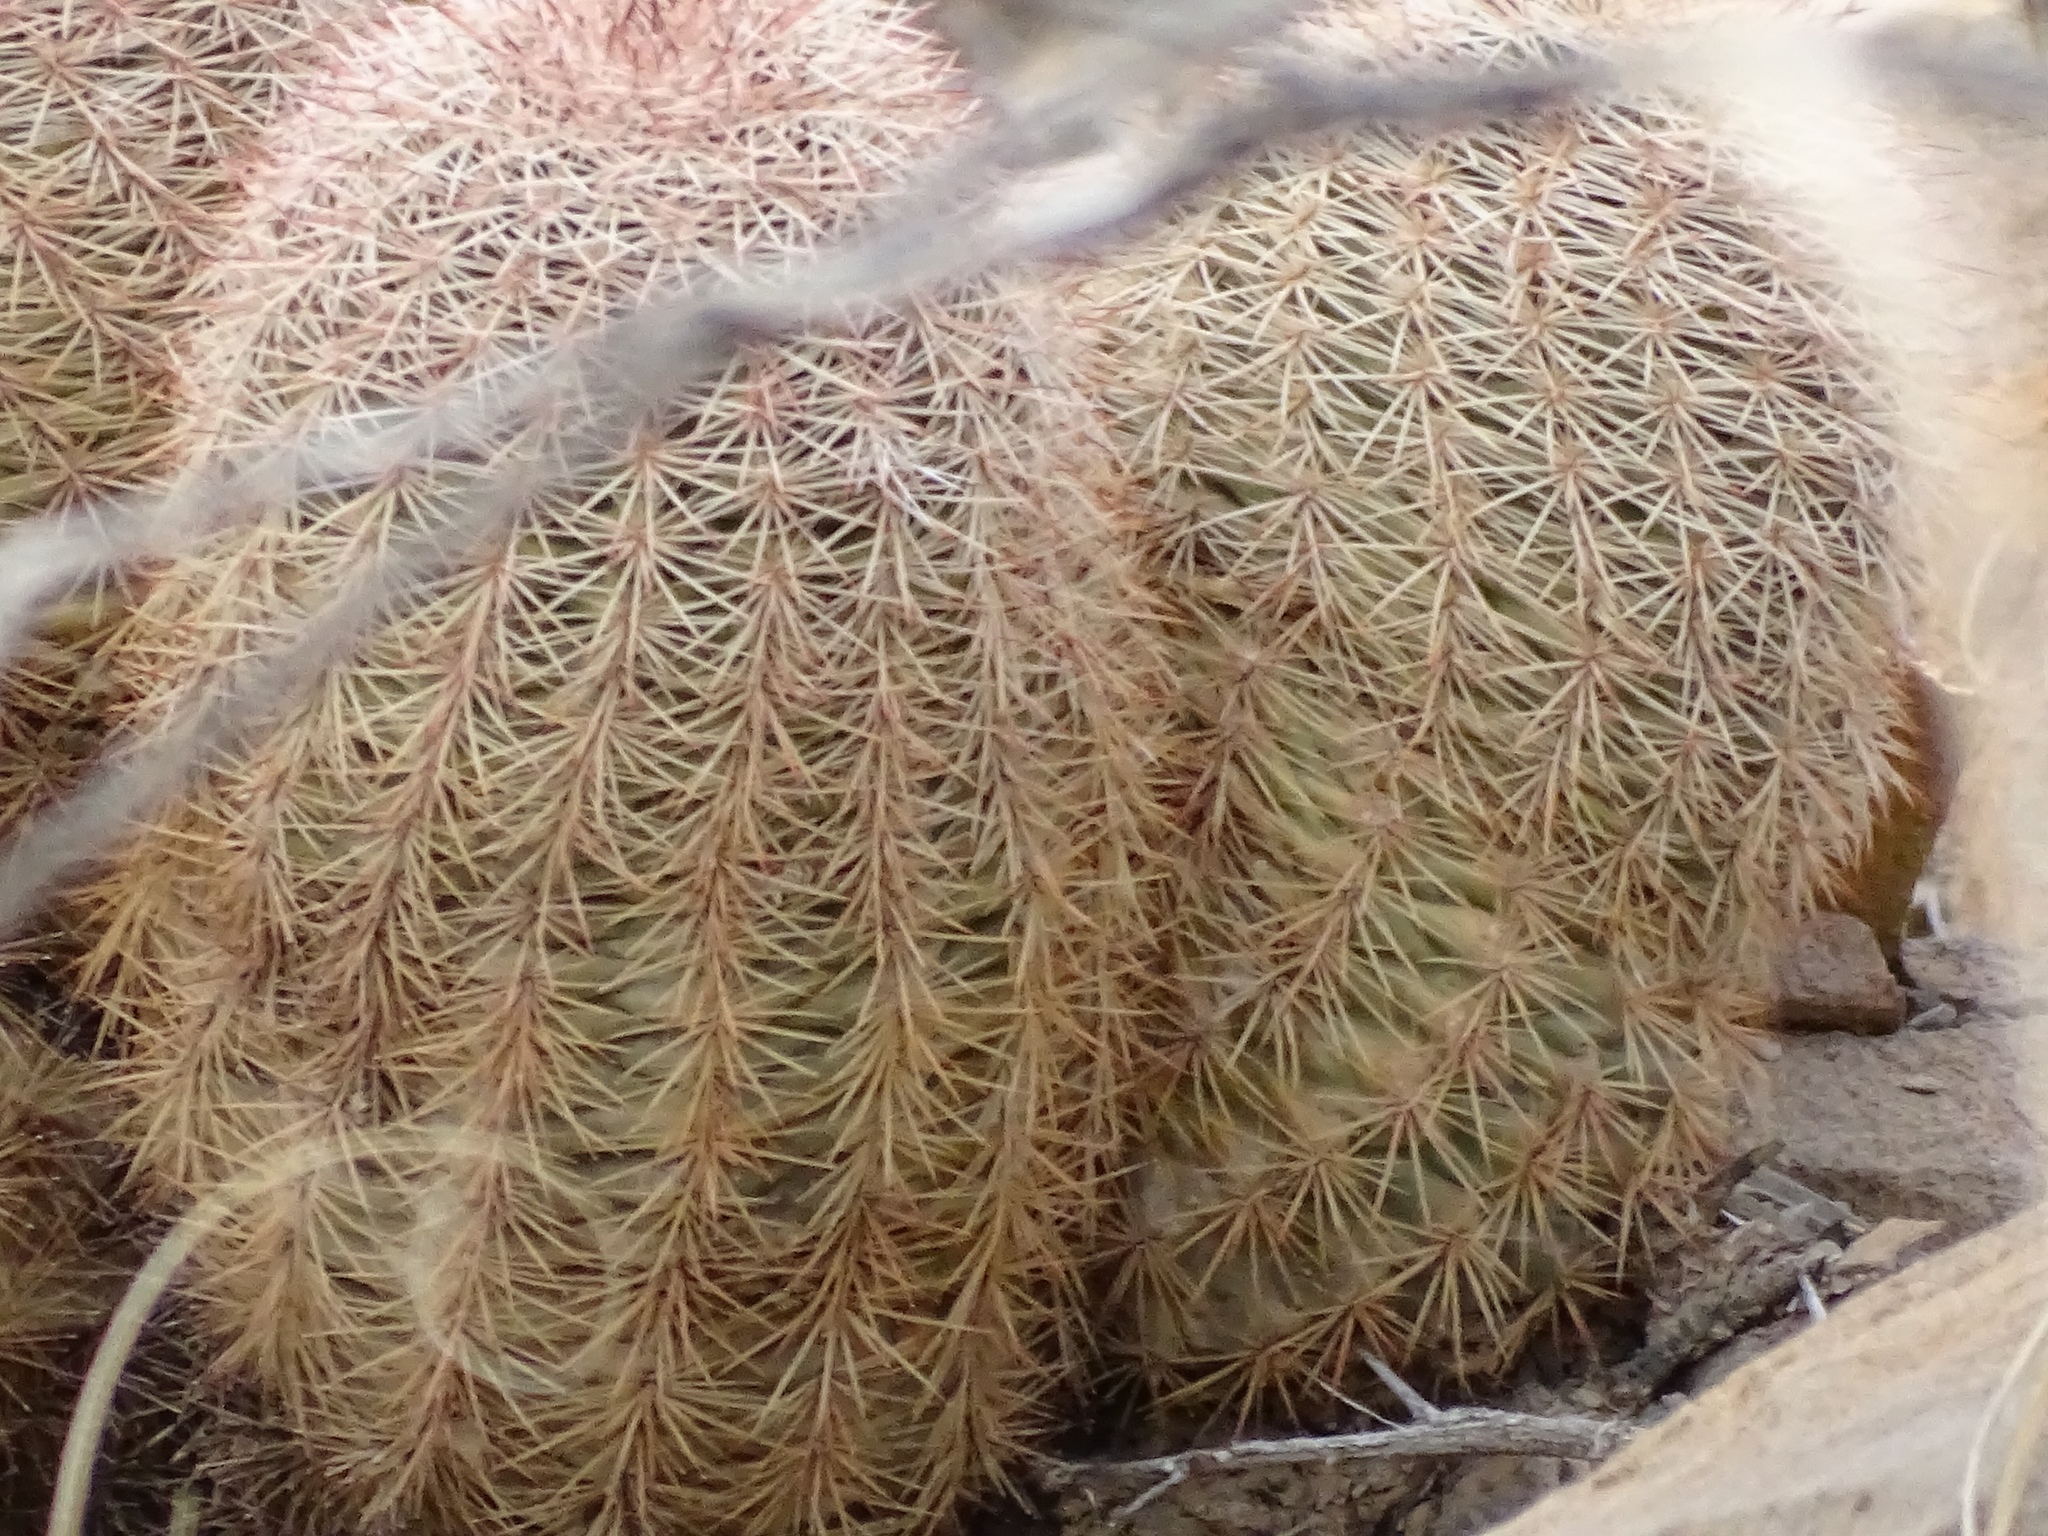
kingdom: Plantae
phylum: Tracheophyta
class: Magnoliopsida
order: Caryophyllales
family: Cactaceae
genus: Echinocereus
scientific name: Echinocereus dasyacanthus
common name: Spiny hedgehog cactus
